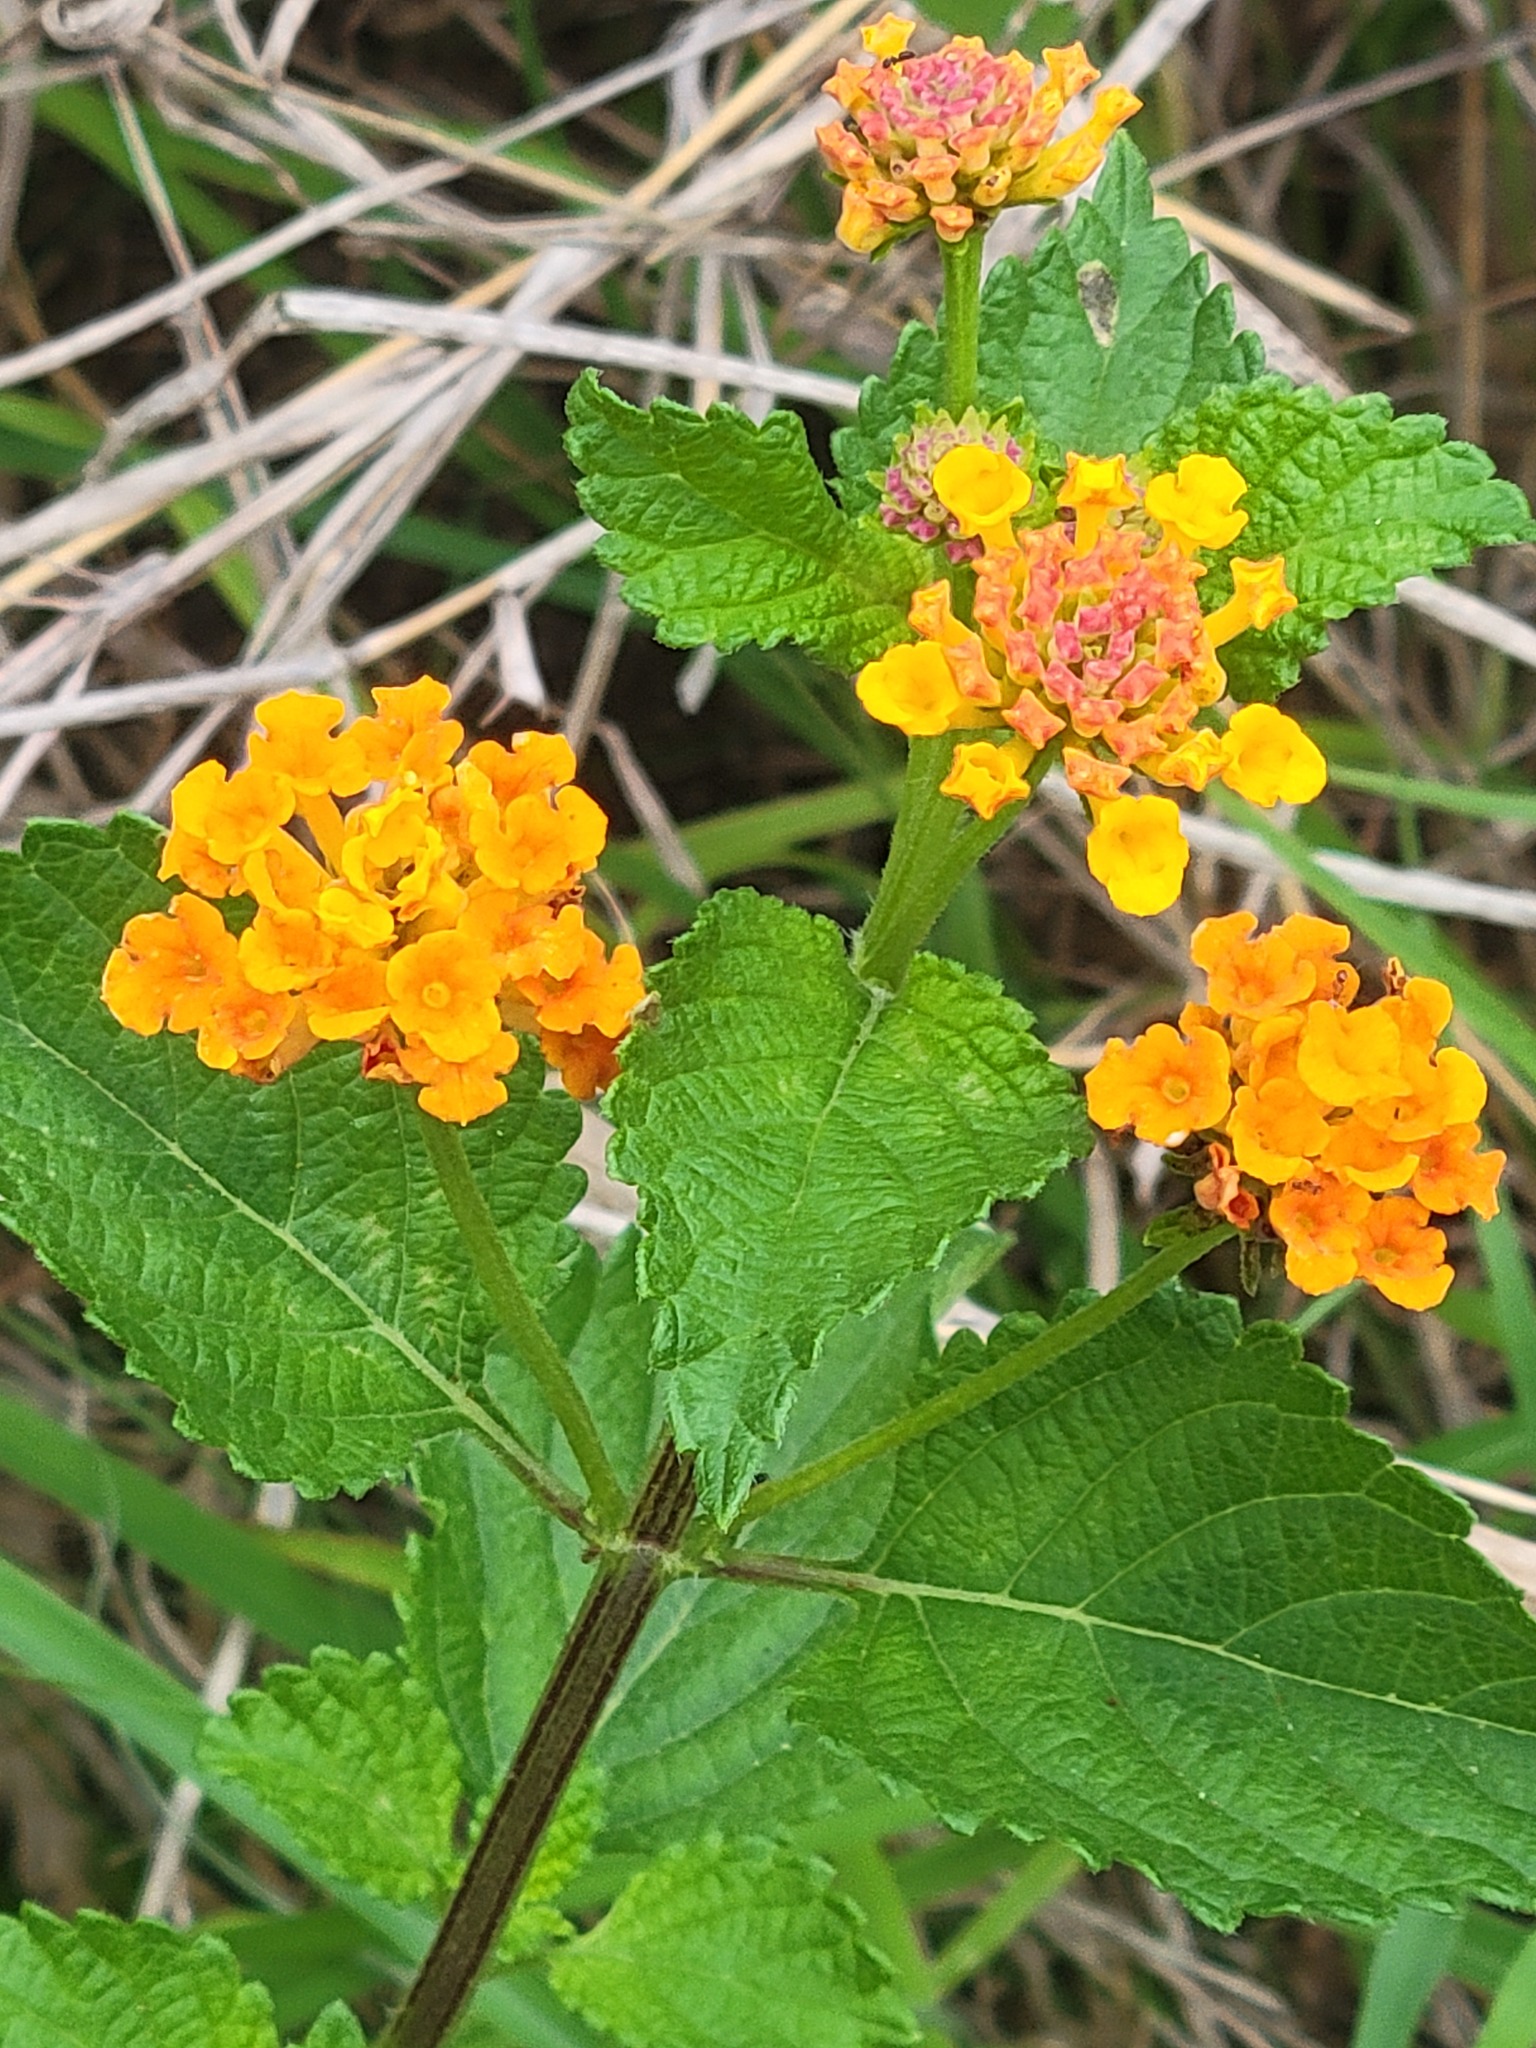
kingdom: Plantae
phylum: Tracheophyta
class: Magnoliopsida
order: Lamiales
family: Verbenaceae
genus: Lantana
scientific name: Lantana urticoides
